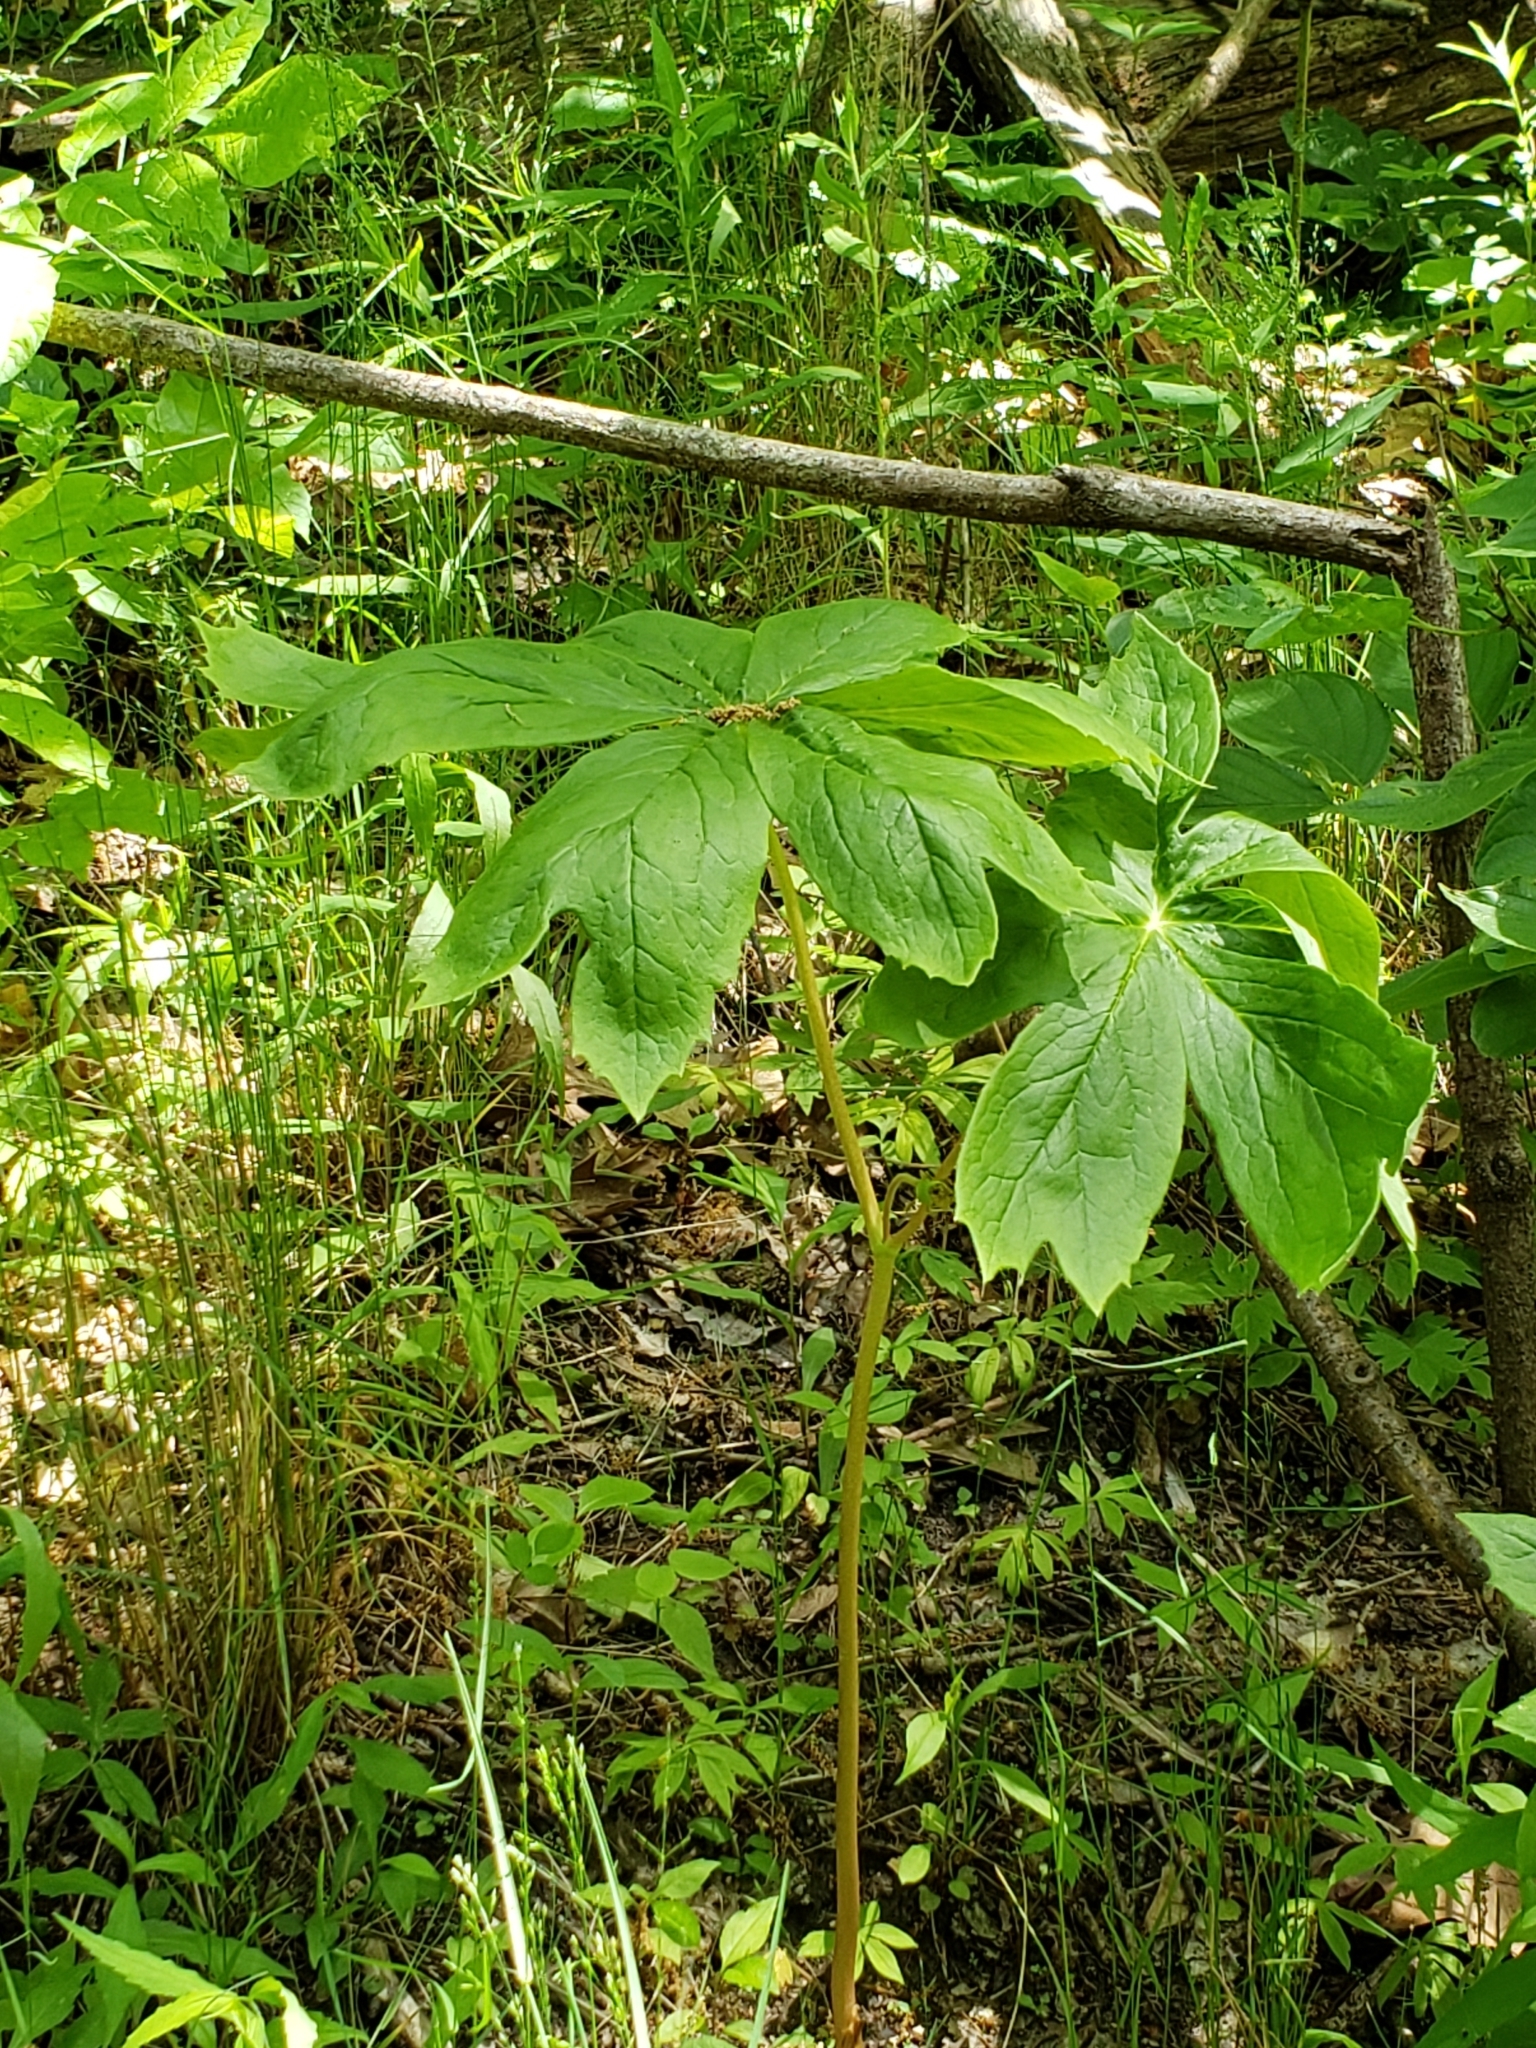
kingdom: Plantae
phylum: Tracheophyta
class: Magnoliopsida
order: Ranunculales
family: Berberidaceae
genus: Podophyllum
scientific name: Podophyllum peltatum
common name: Wild mandrake
